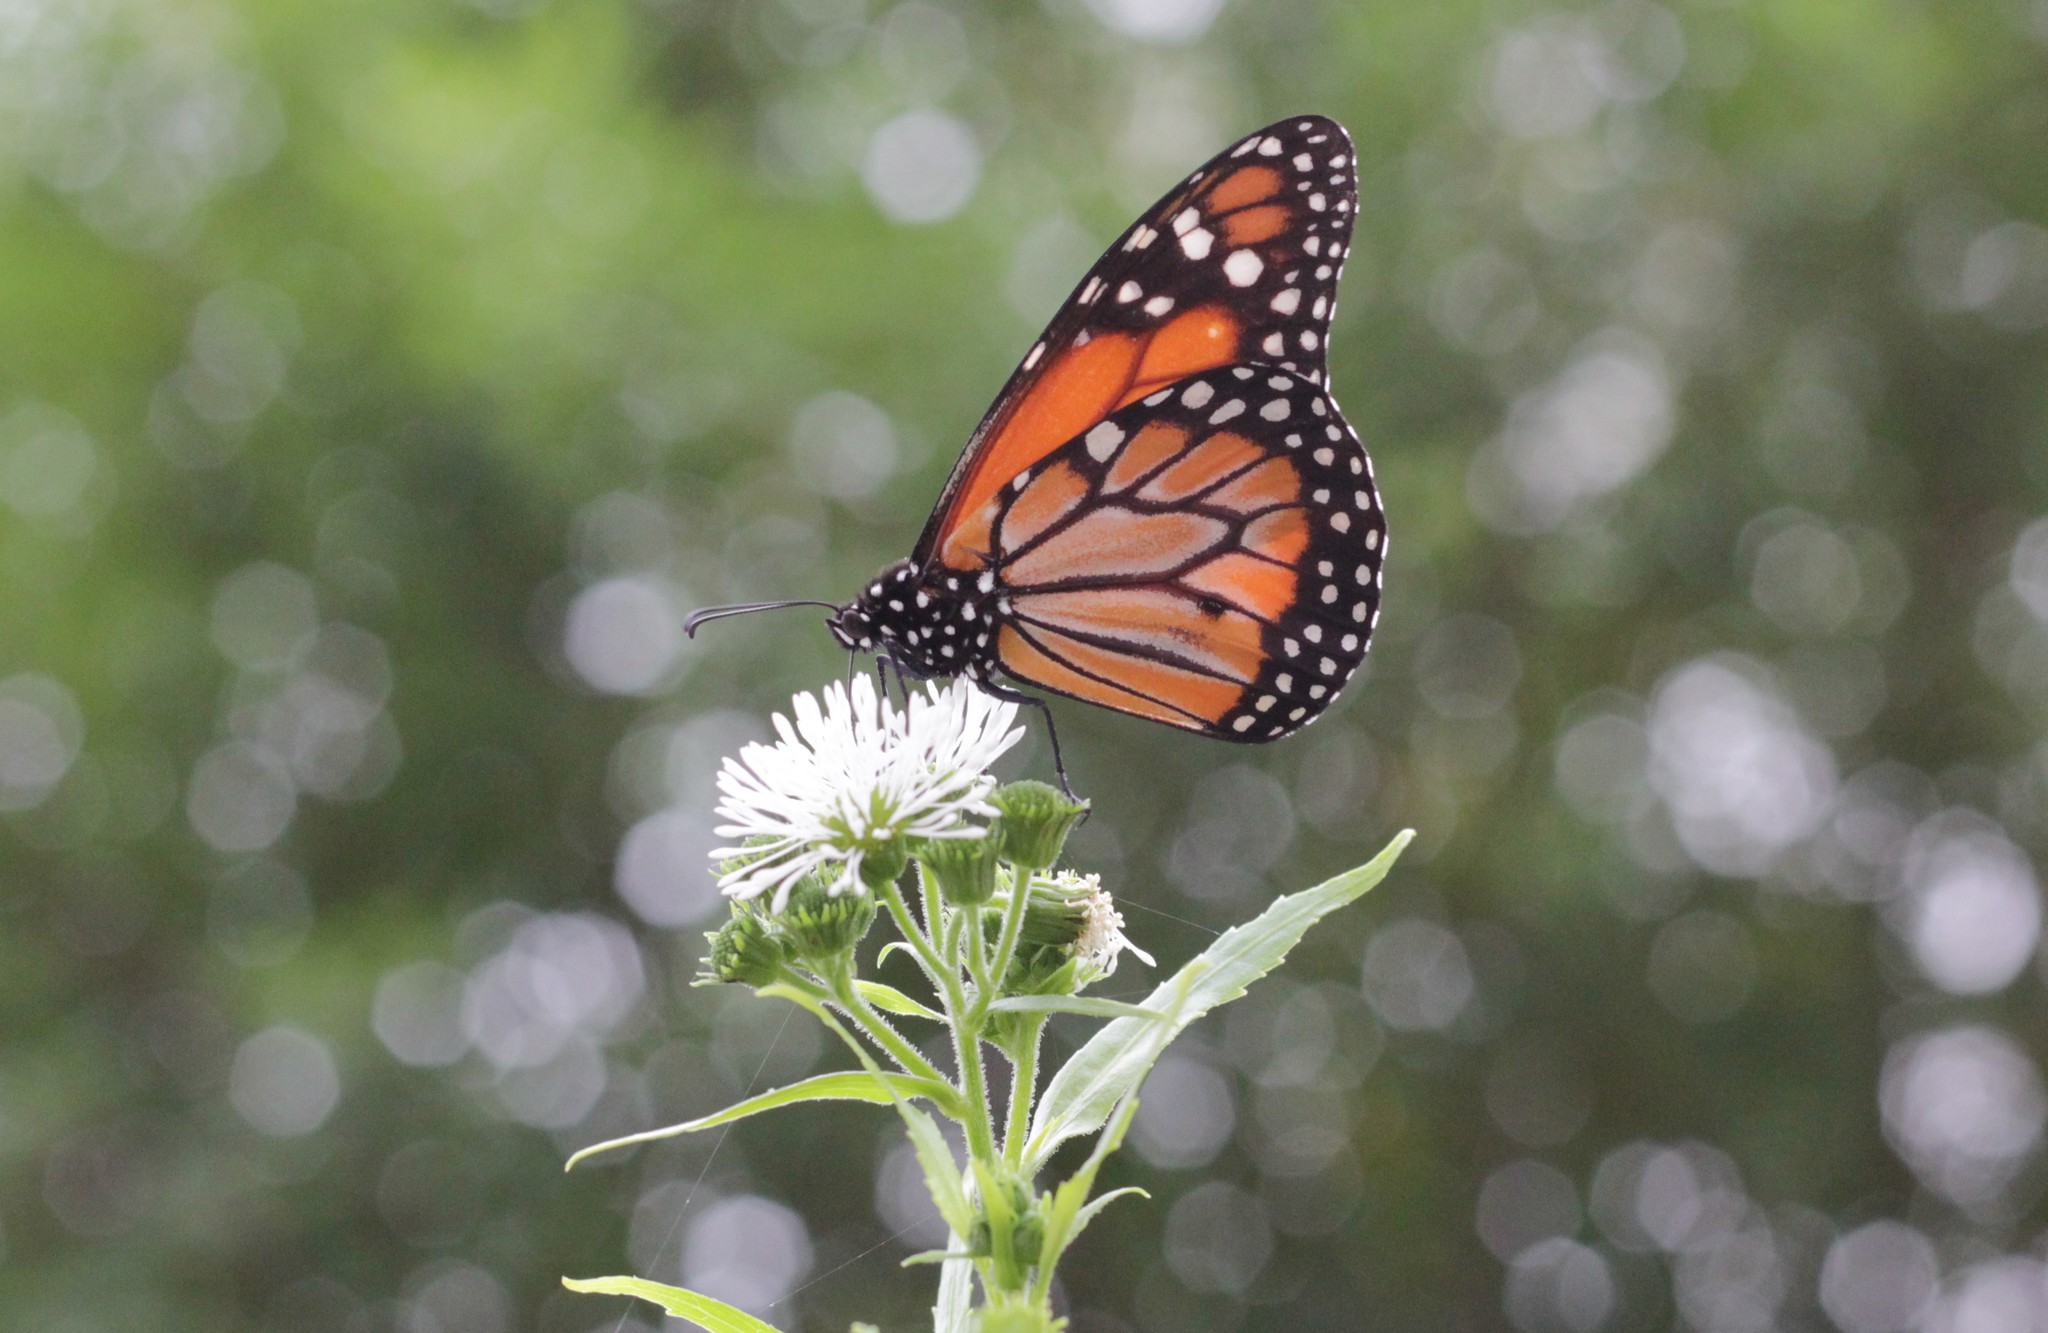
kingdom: Animalia
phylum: Arthropoda
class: Insecta
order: Lepidoptera
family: Nymphalidae
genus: Danaus
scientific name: Danaus erippus
